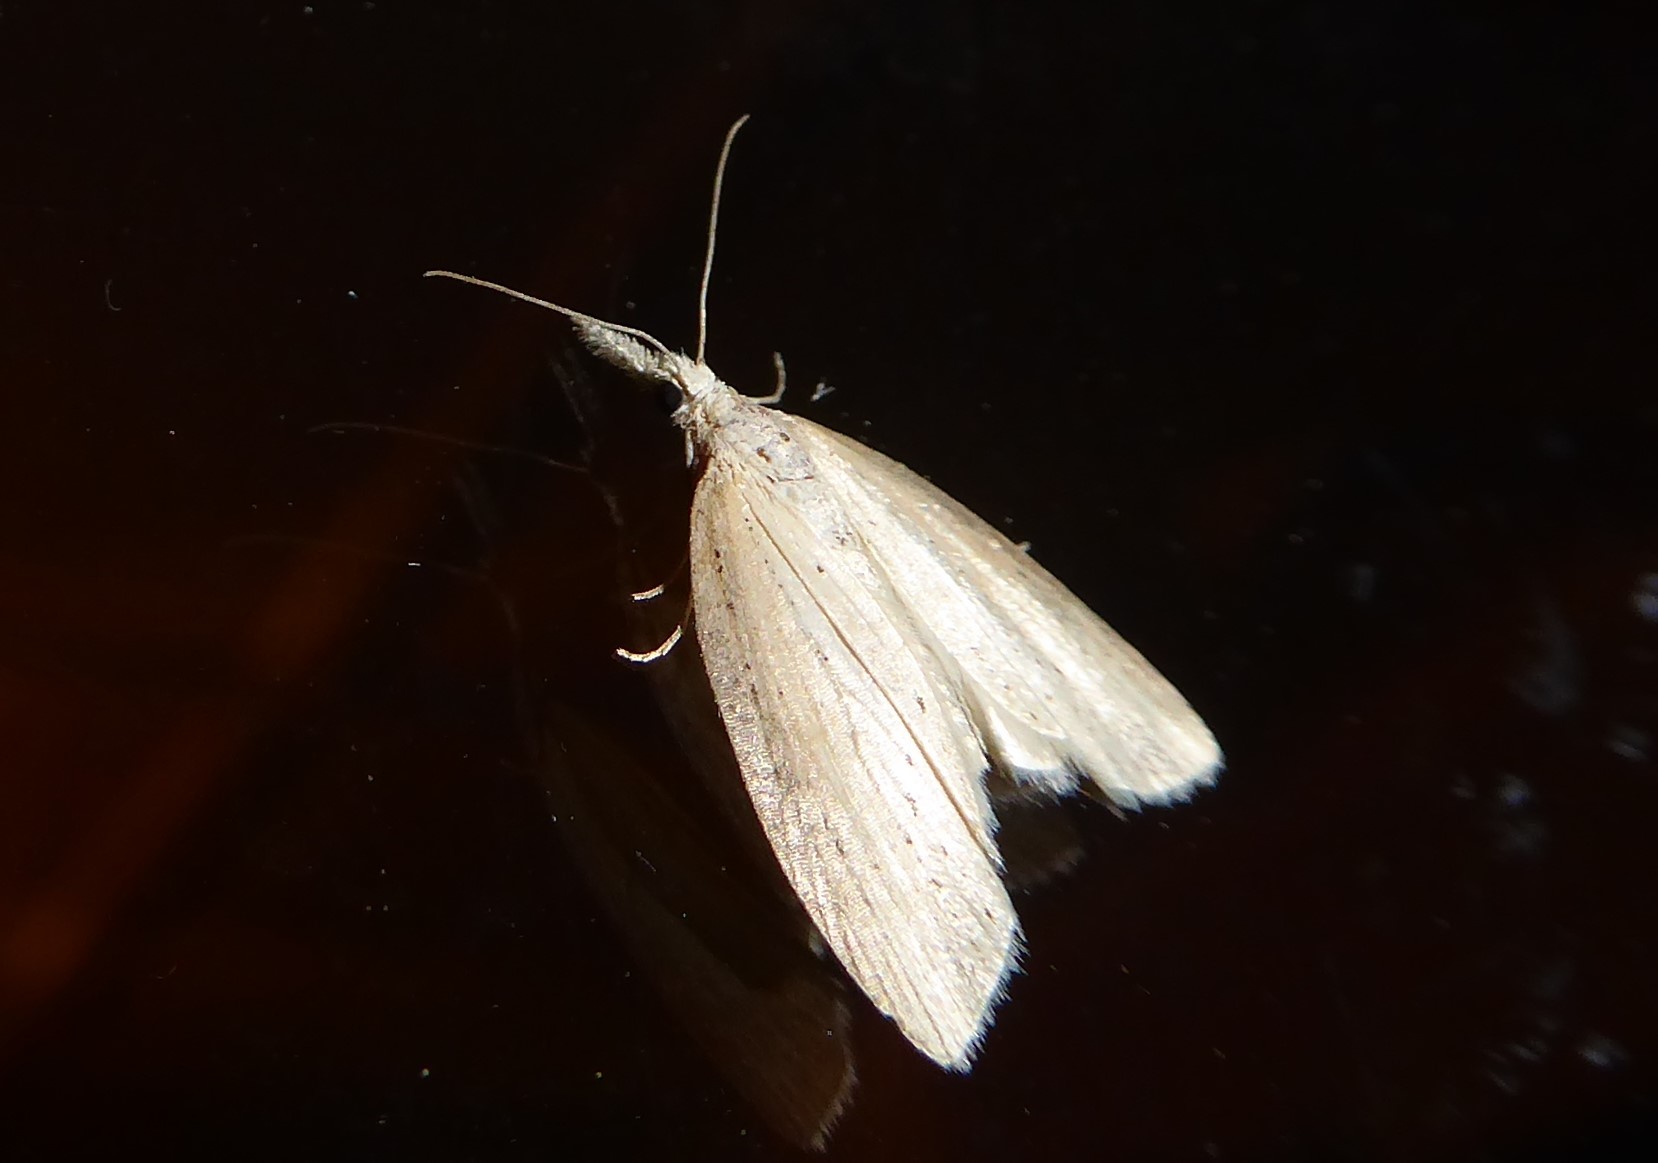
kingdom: Animalia
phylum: Arthropoda
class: Insecta
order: Lepidoptera
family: Geometridae
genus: Microdes
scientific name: Microdes epicryptis
